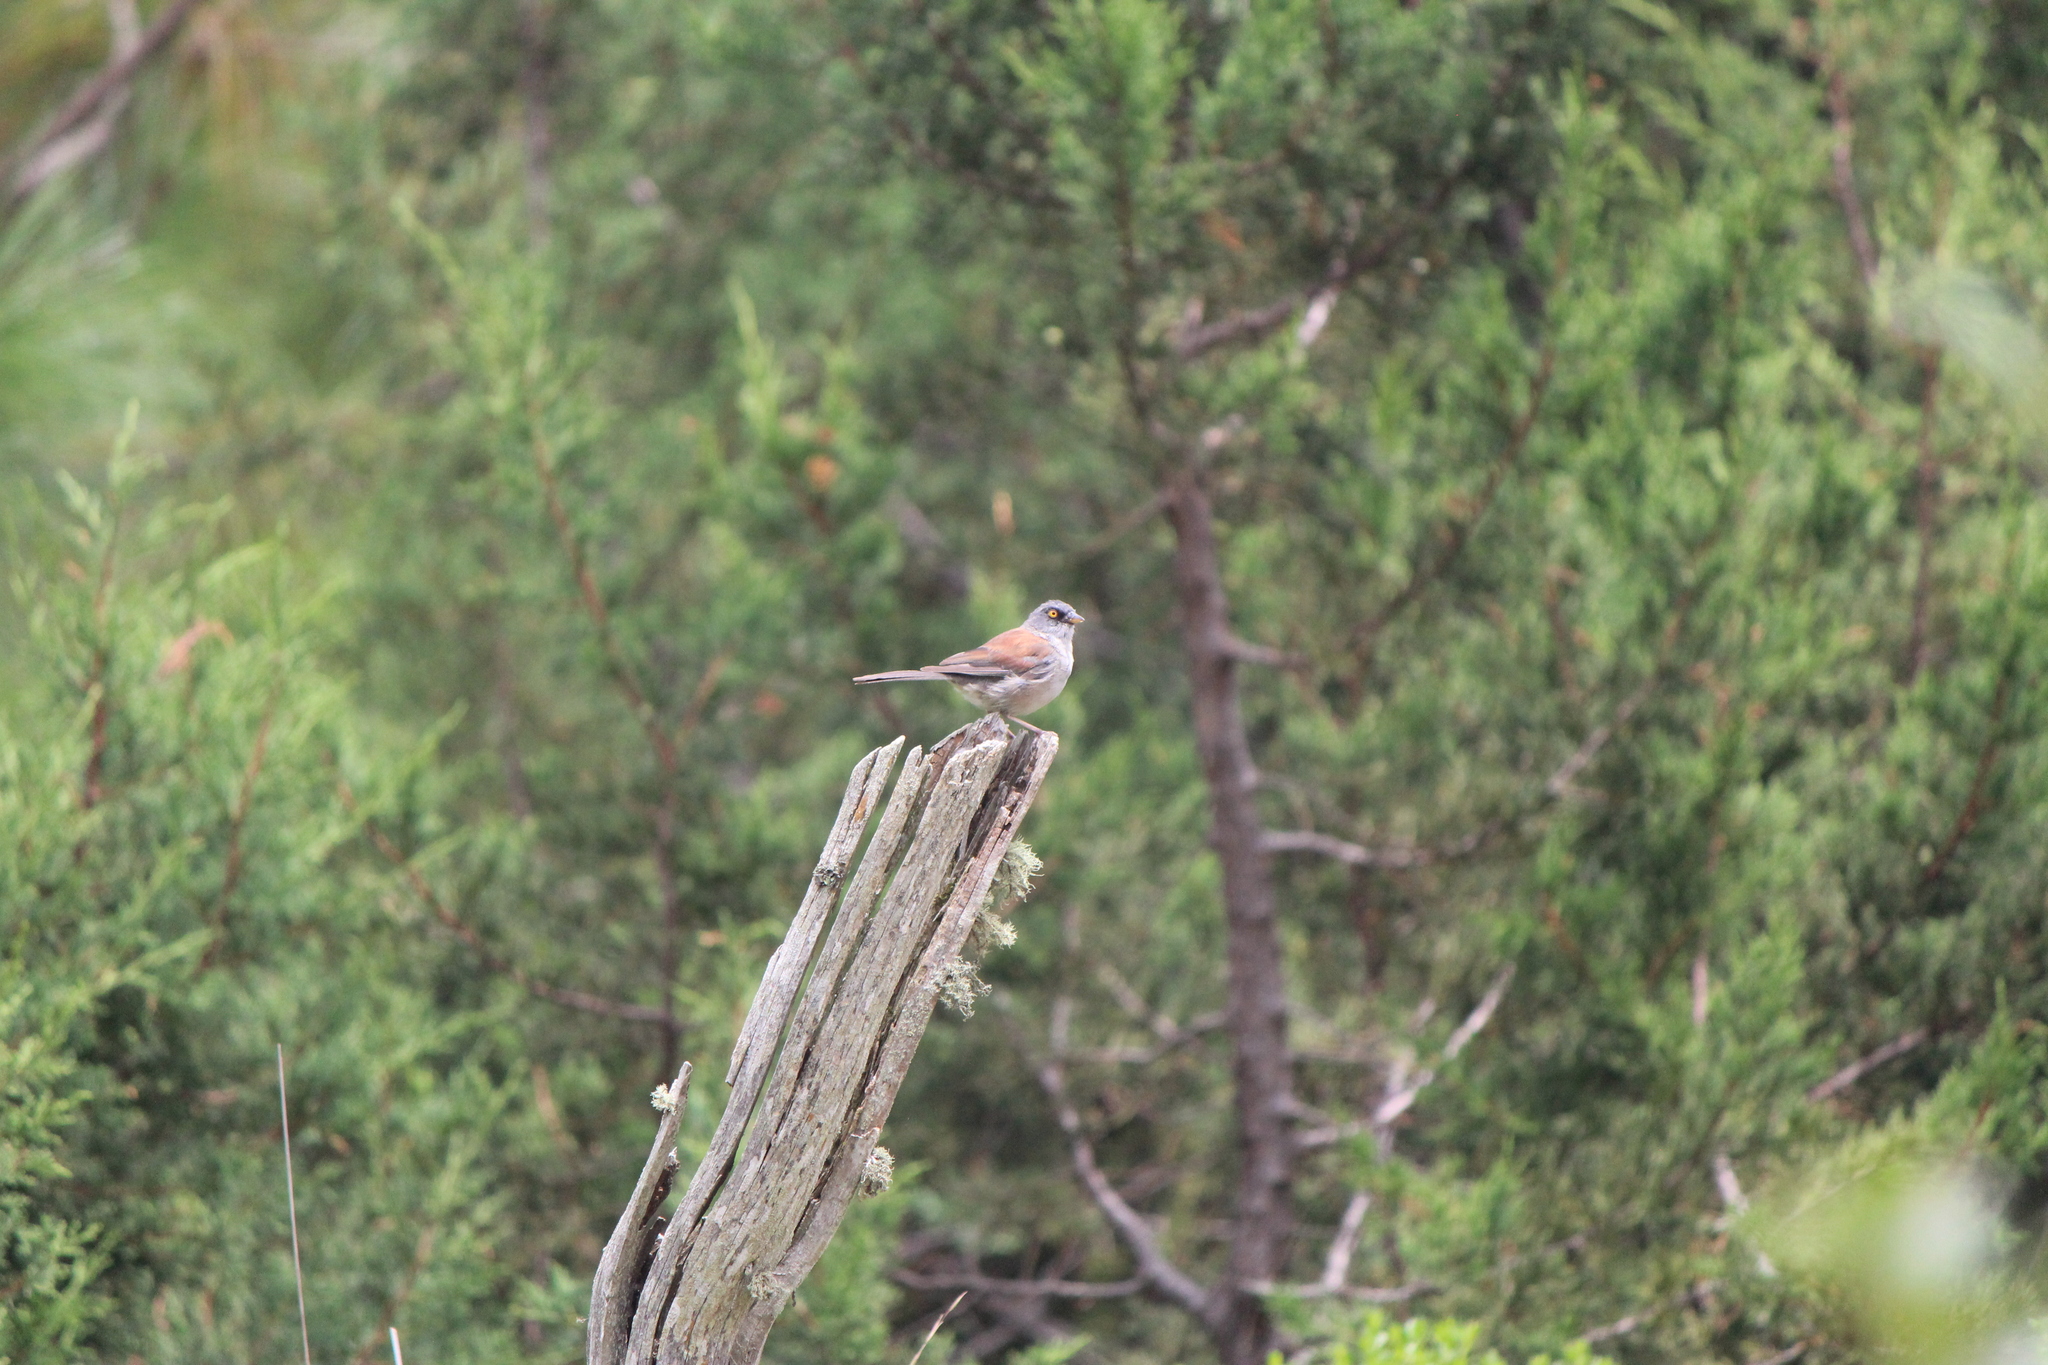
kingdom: Animalia
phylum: Chordata
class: Aves
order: Passeriformes
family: Passerellidae
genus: Junco
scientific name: Junco phaeonotus
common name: Yellow-eyed junco
